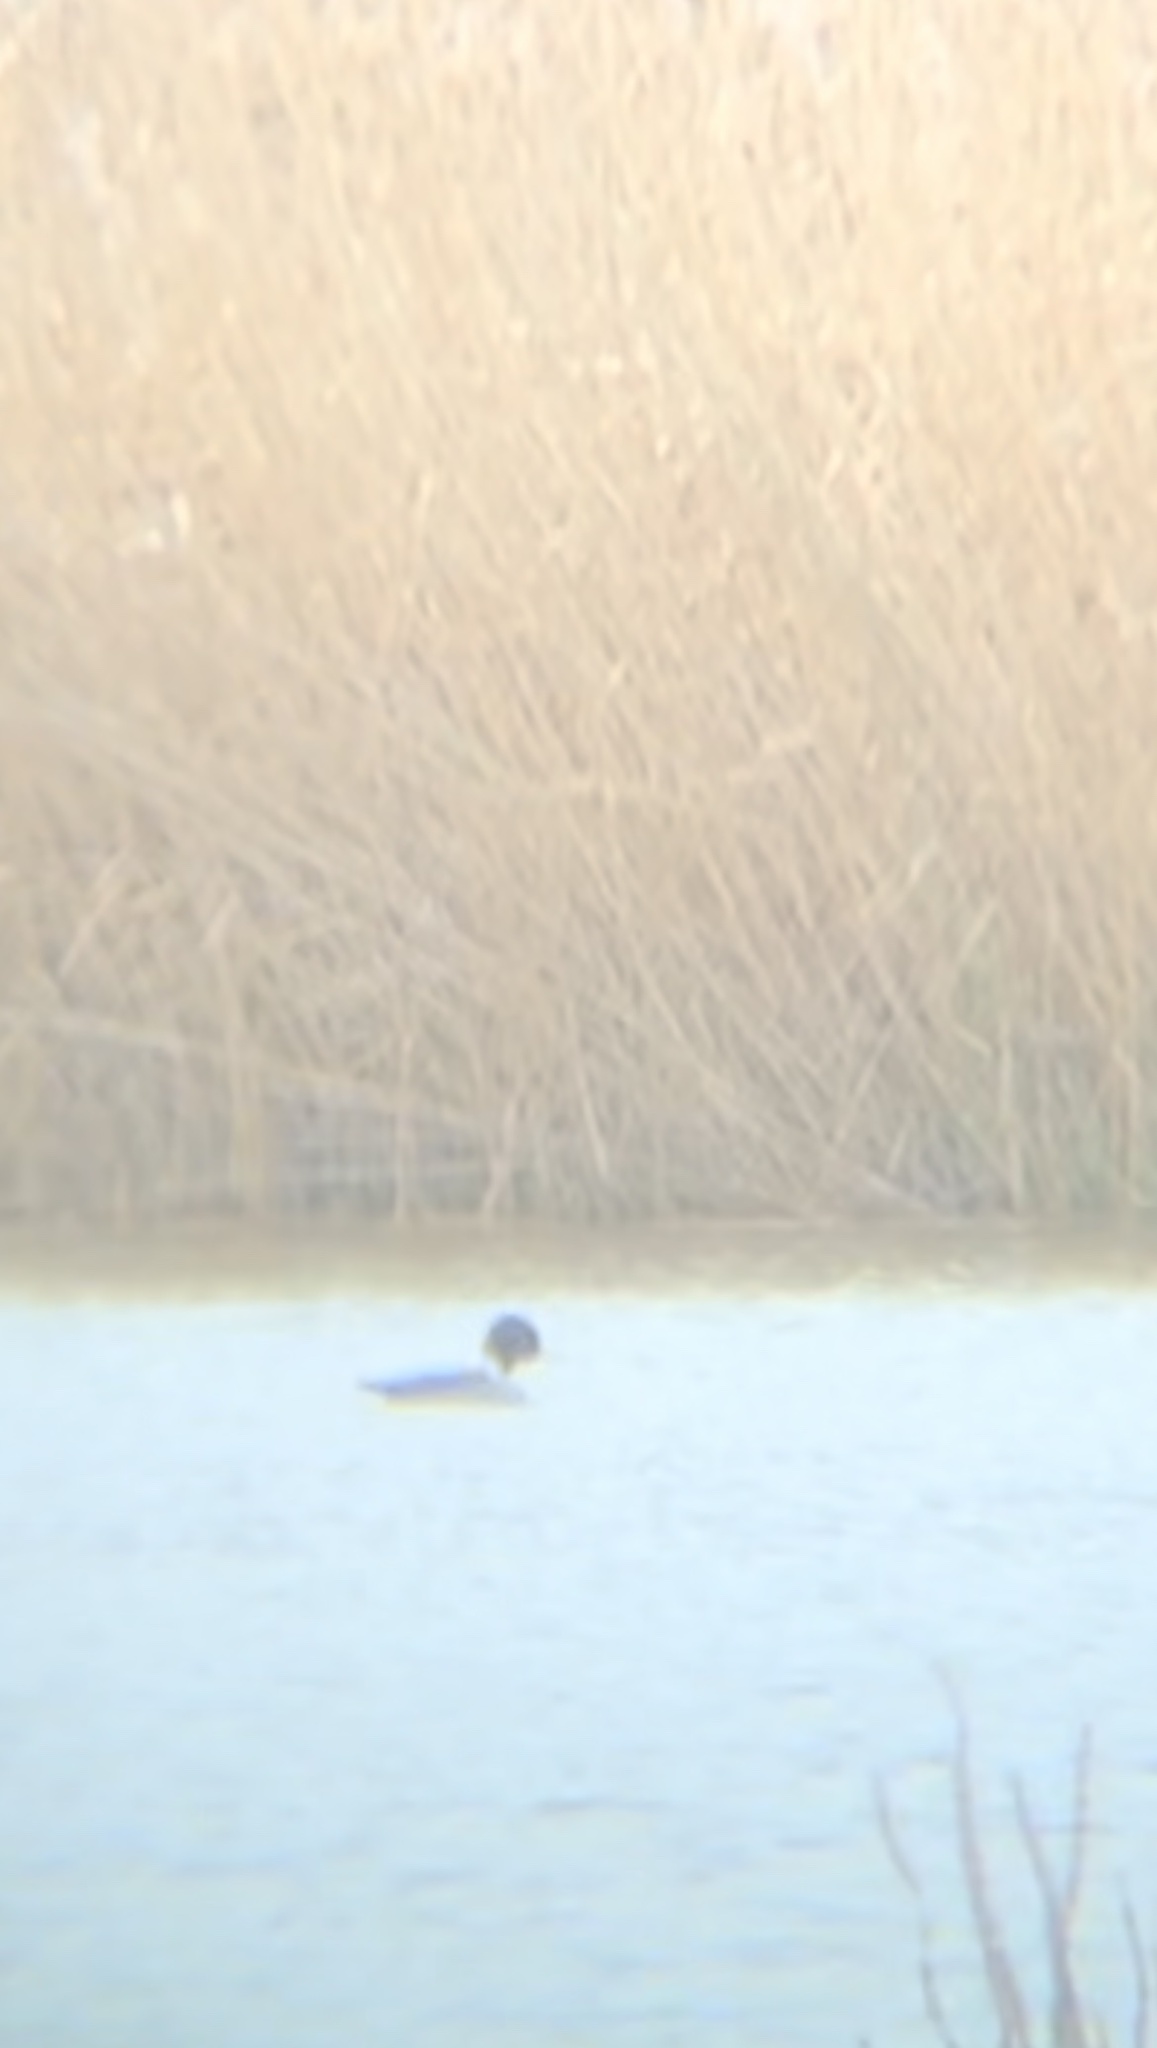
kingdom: Animalia
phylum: Chordata
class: Aves
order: Anseriformes
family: Anatidae
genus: Bucephala
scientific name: Bucephala clangula
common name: Common goldeneye
